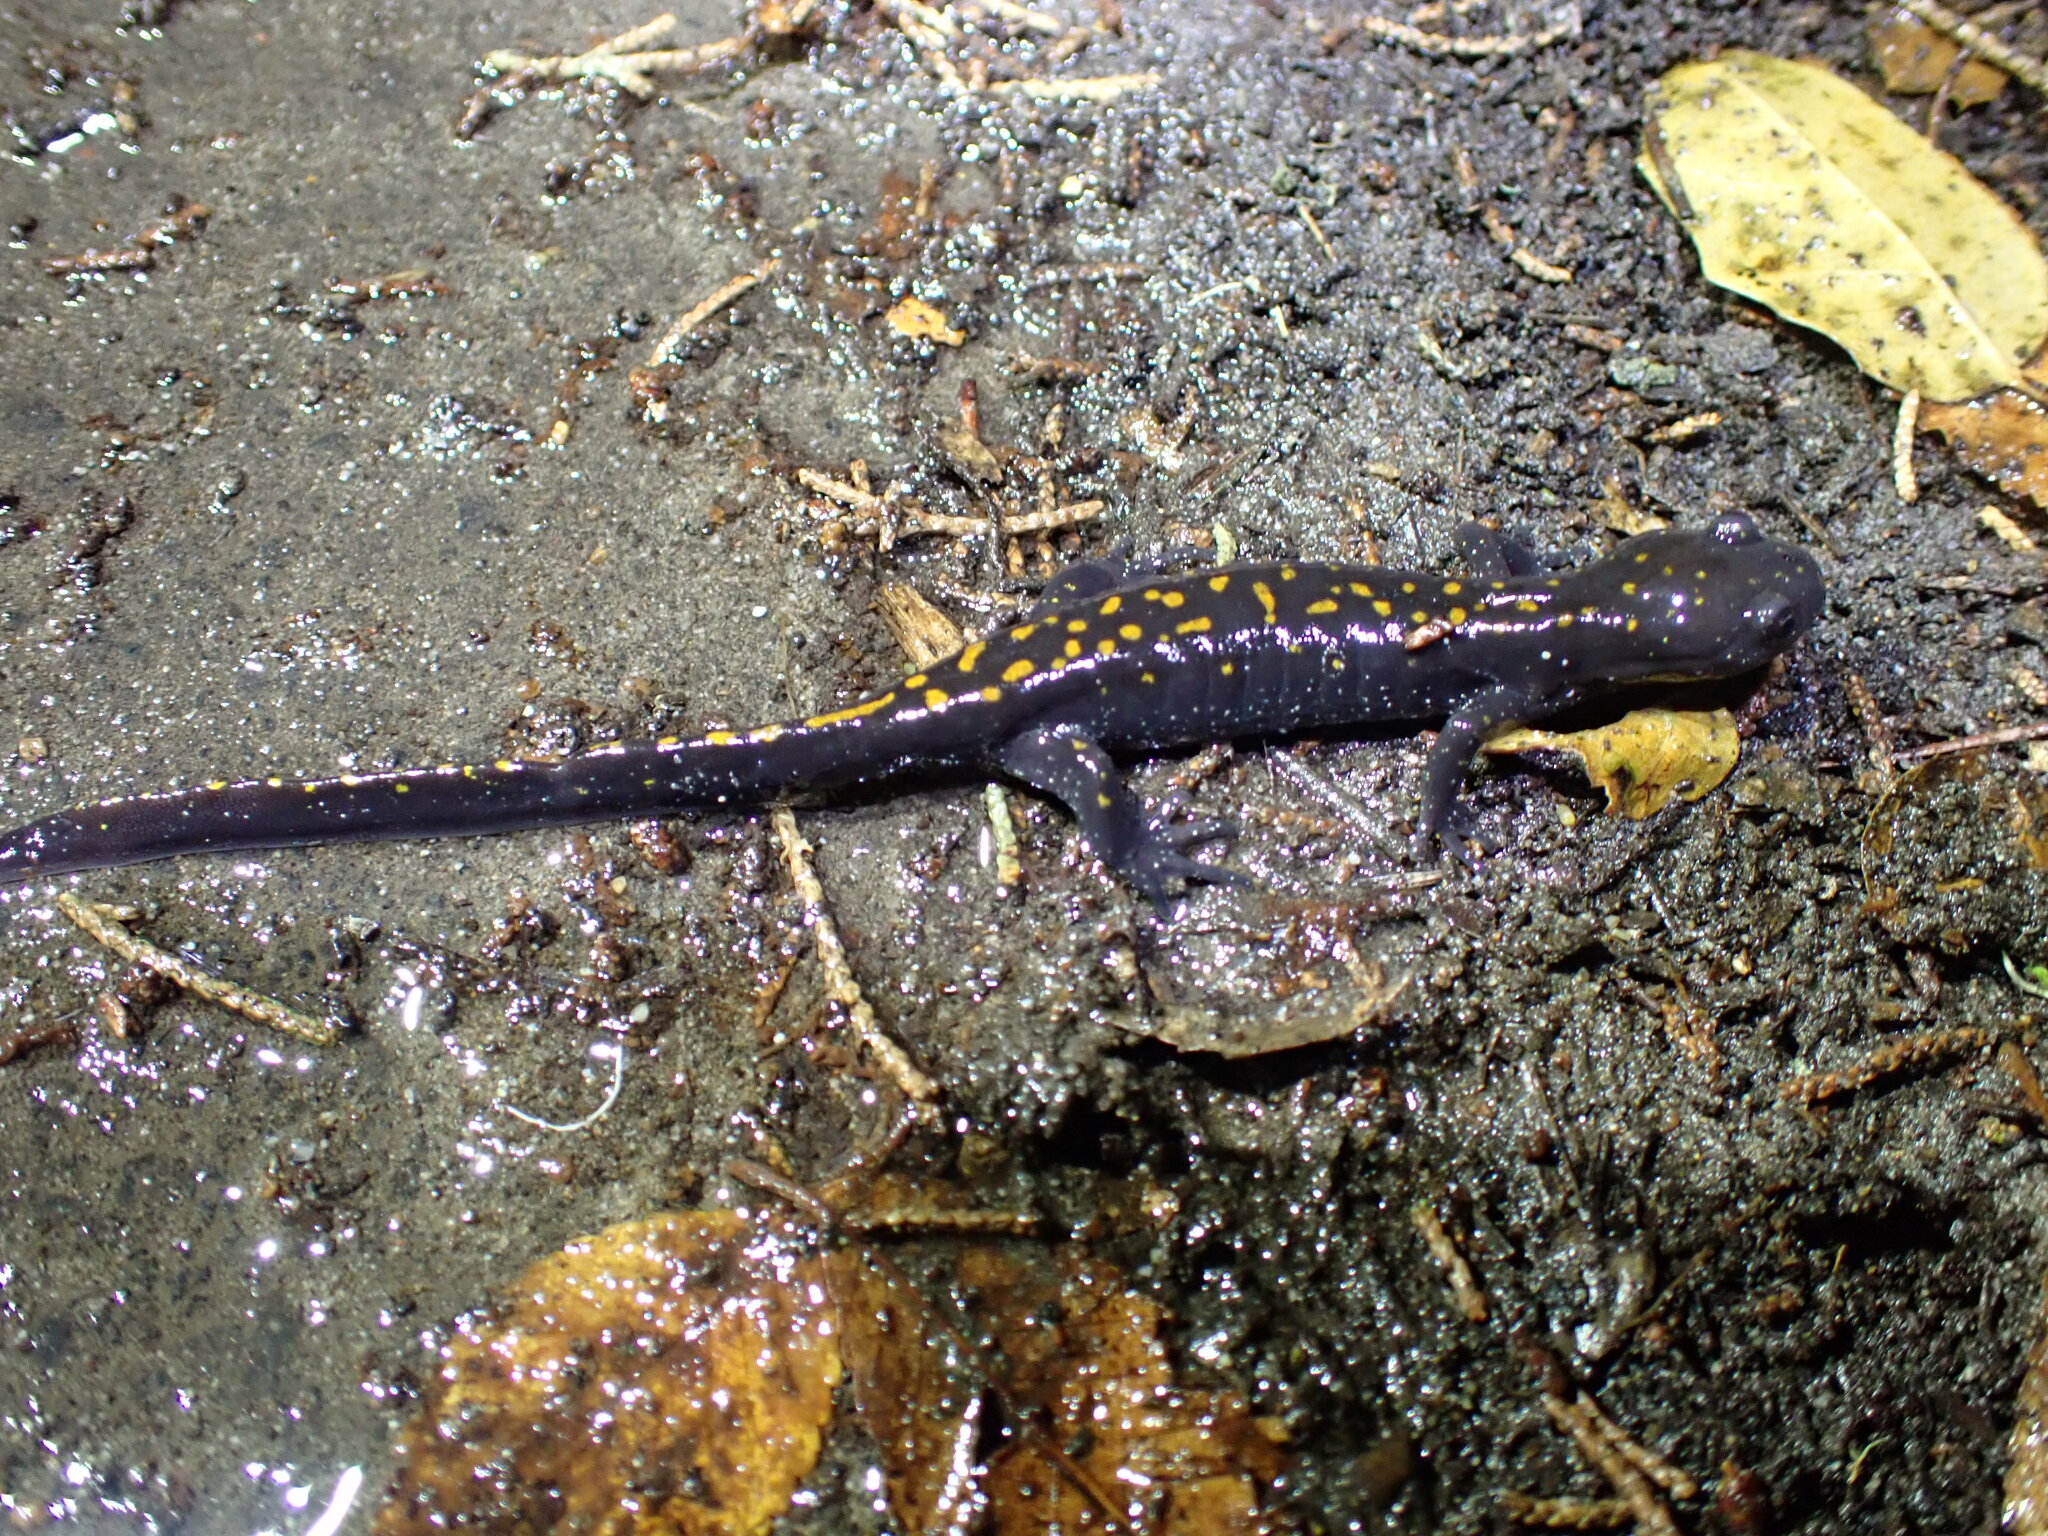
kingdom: Animalia
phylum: Chordata
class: Amphibia
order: Caudata
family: Ambystomatidae
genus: Ambystoma
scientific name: Ambystoma macrodactylum
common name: Long-toed salamander
